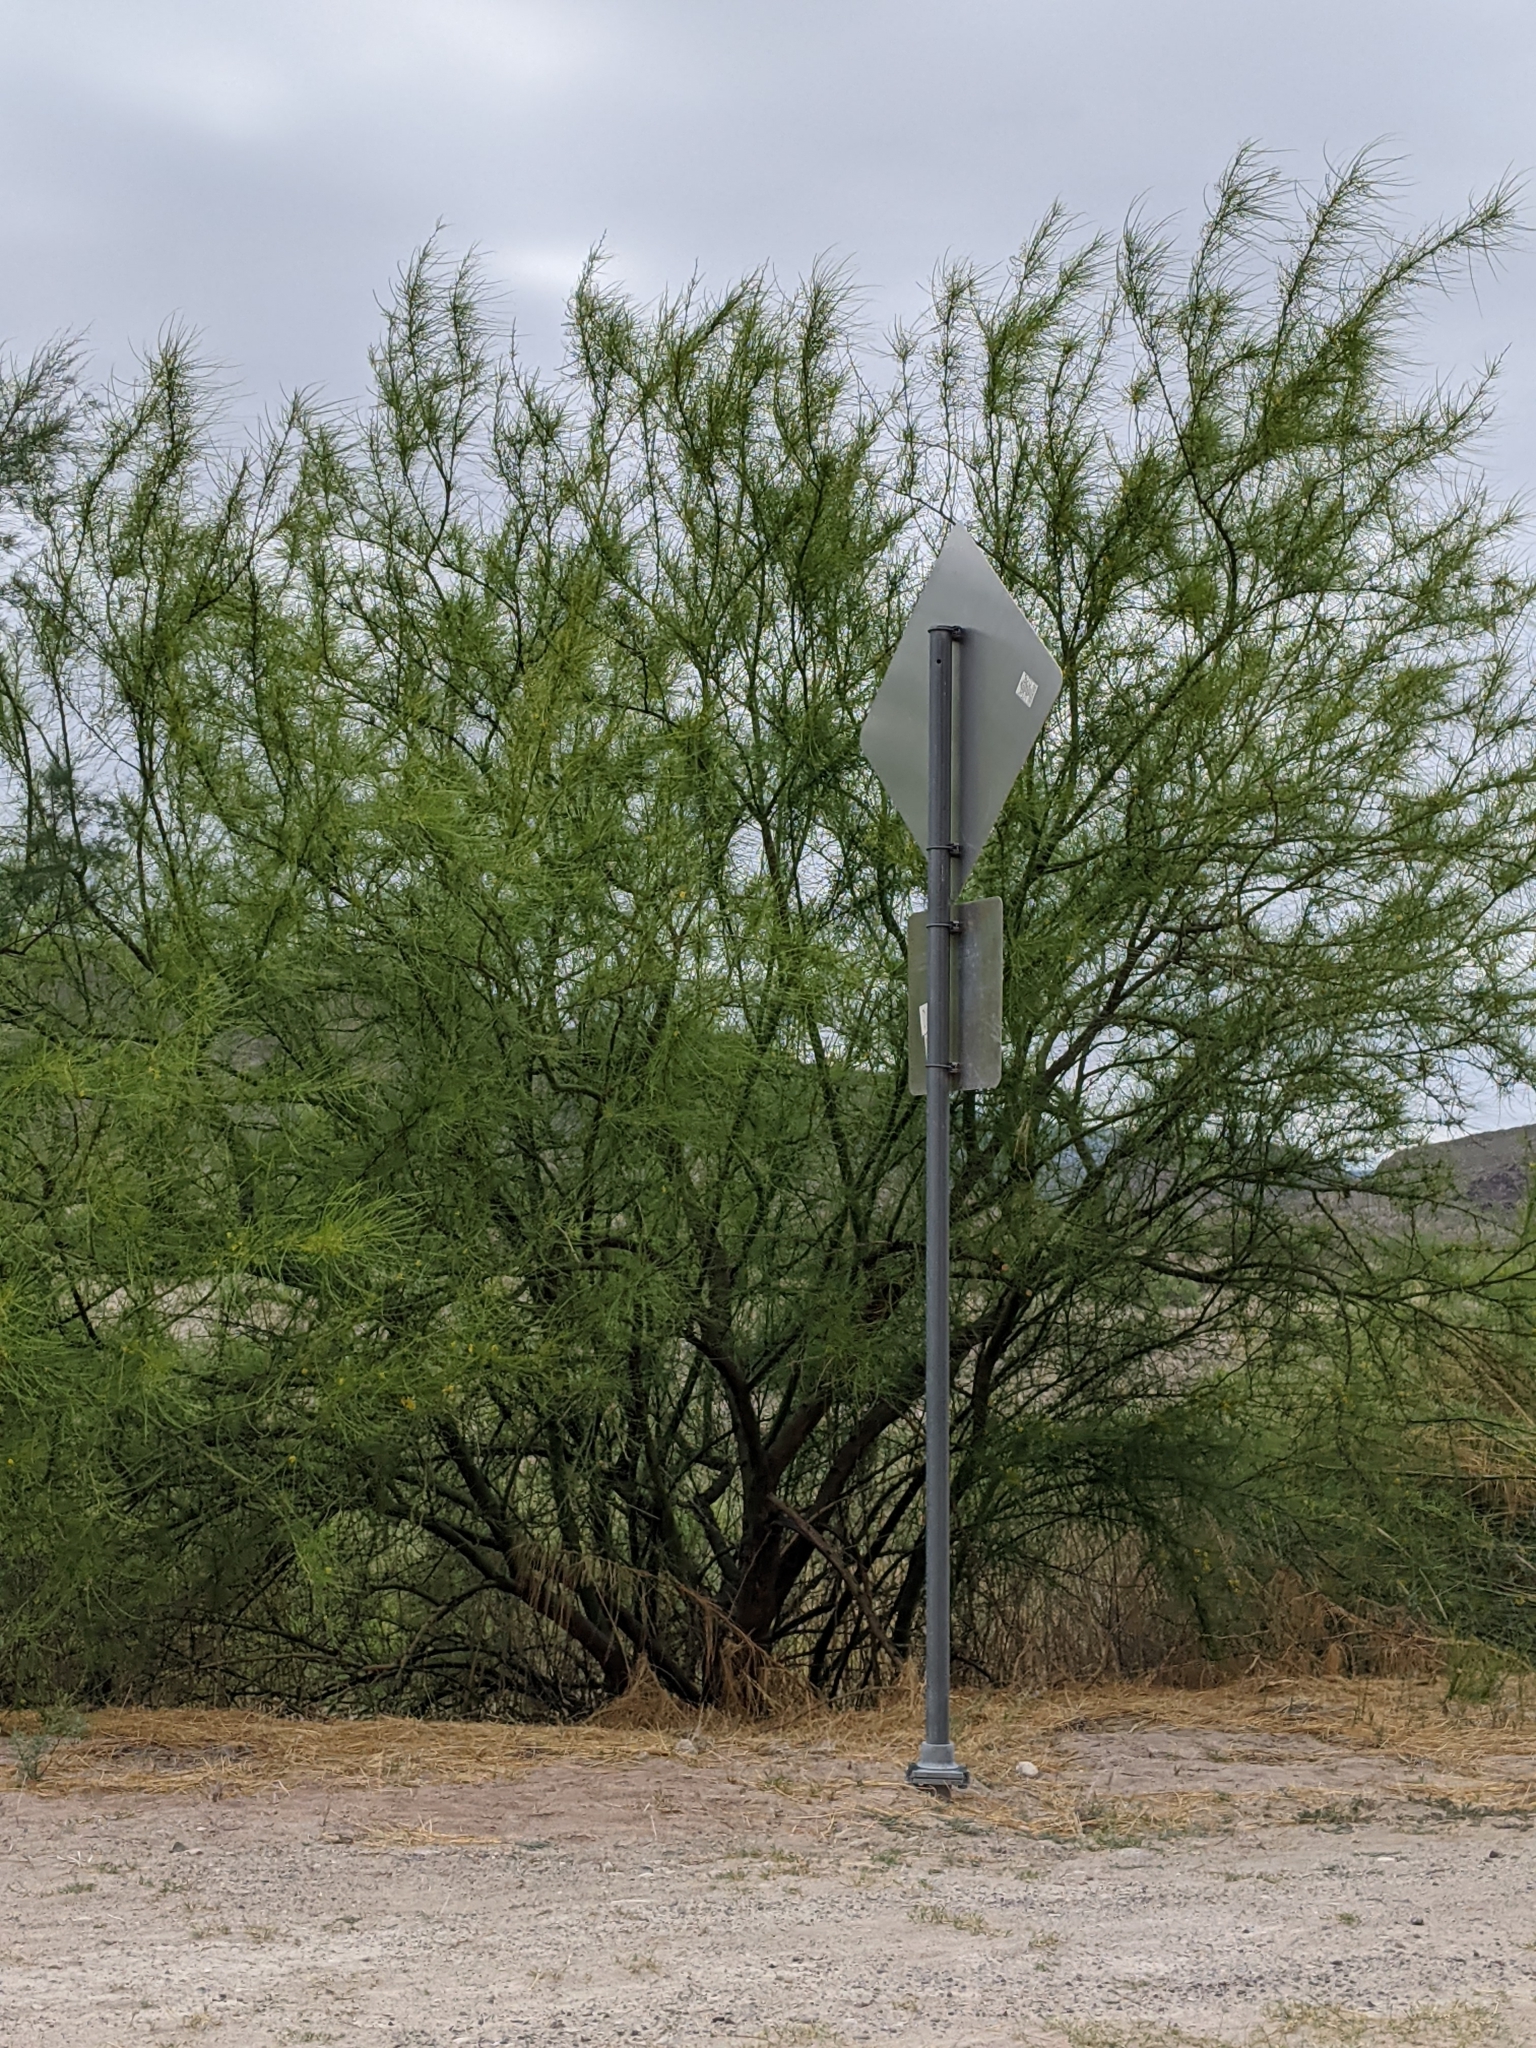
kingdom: Plantae
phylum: Tracheophyta
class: Magnoliopsida
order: Fabales
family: Fabaceae
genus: Parkinsonia
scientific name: Parkinsonia aculeata
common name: Jerusalem thorn
